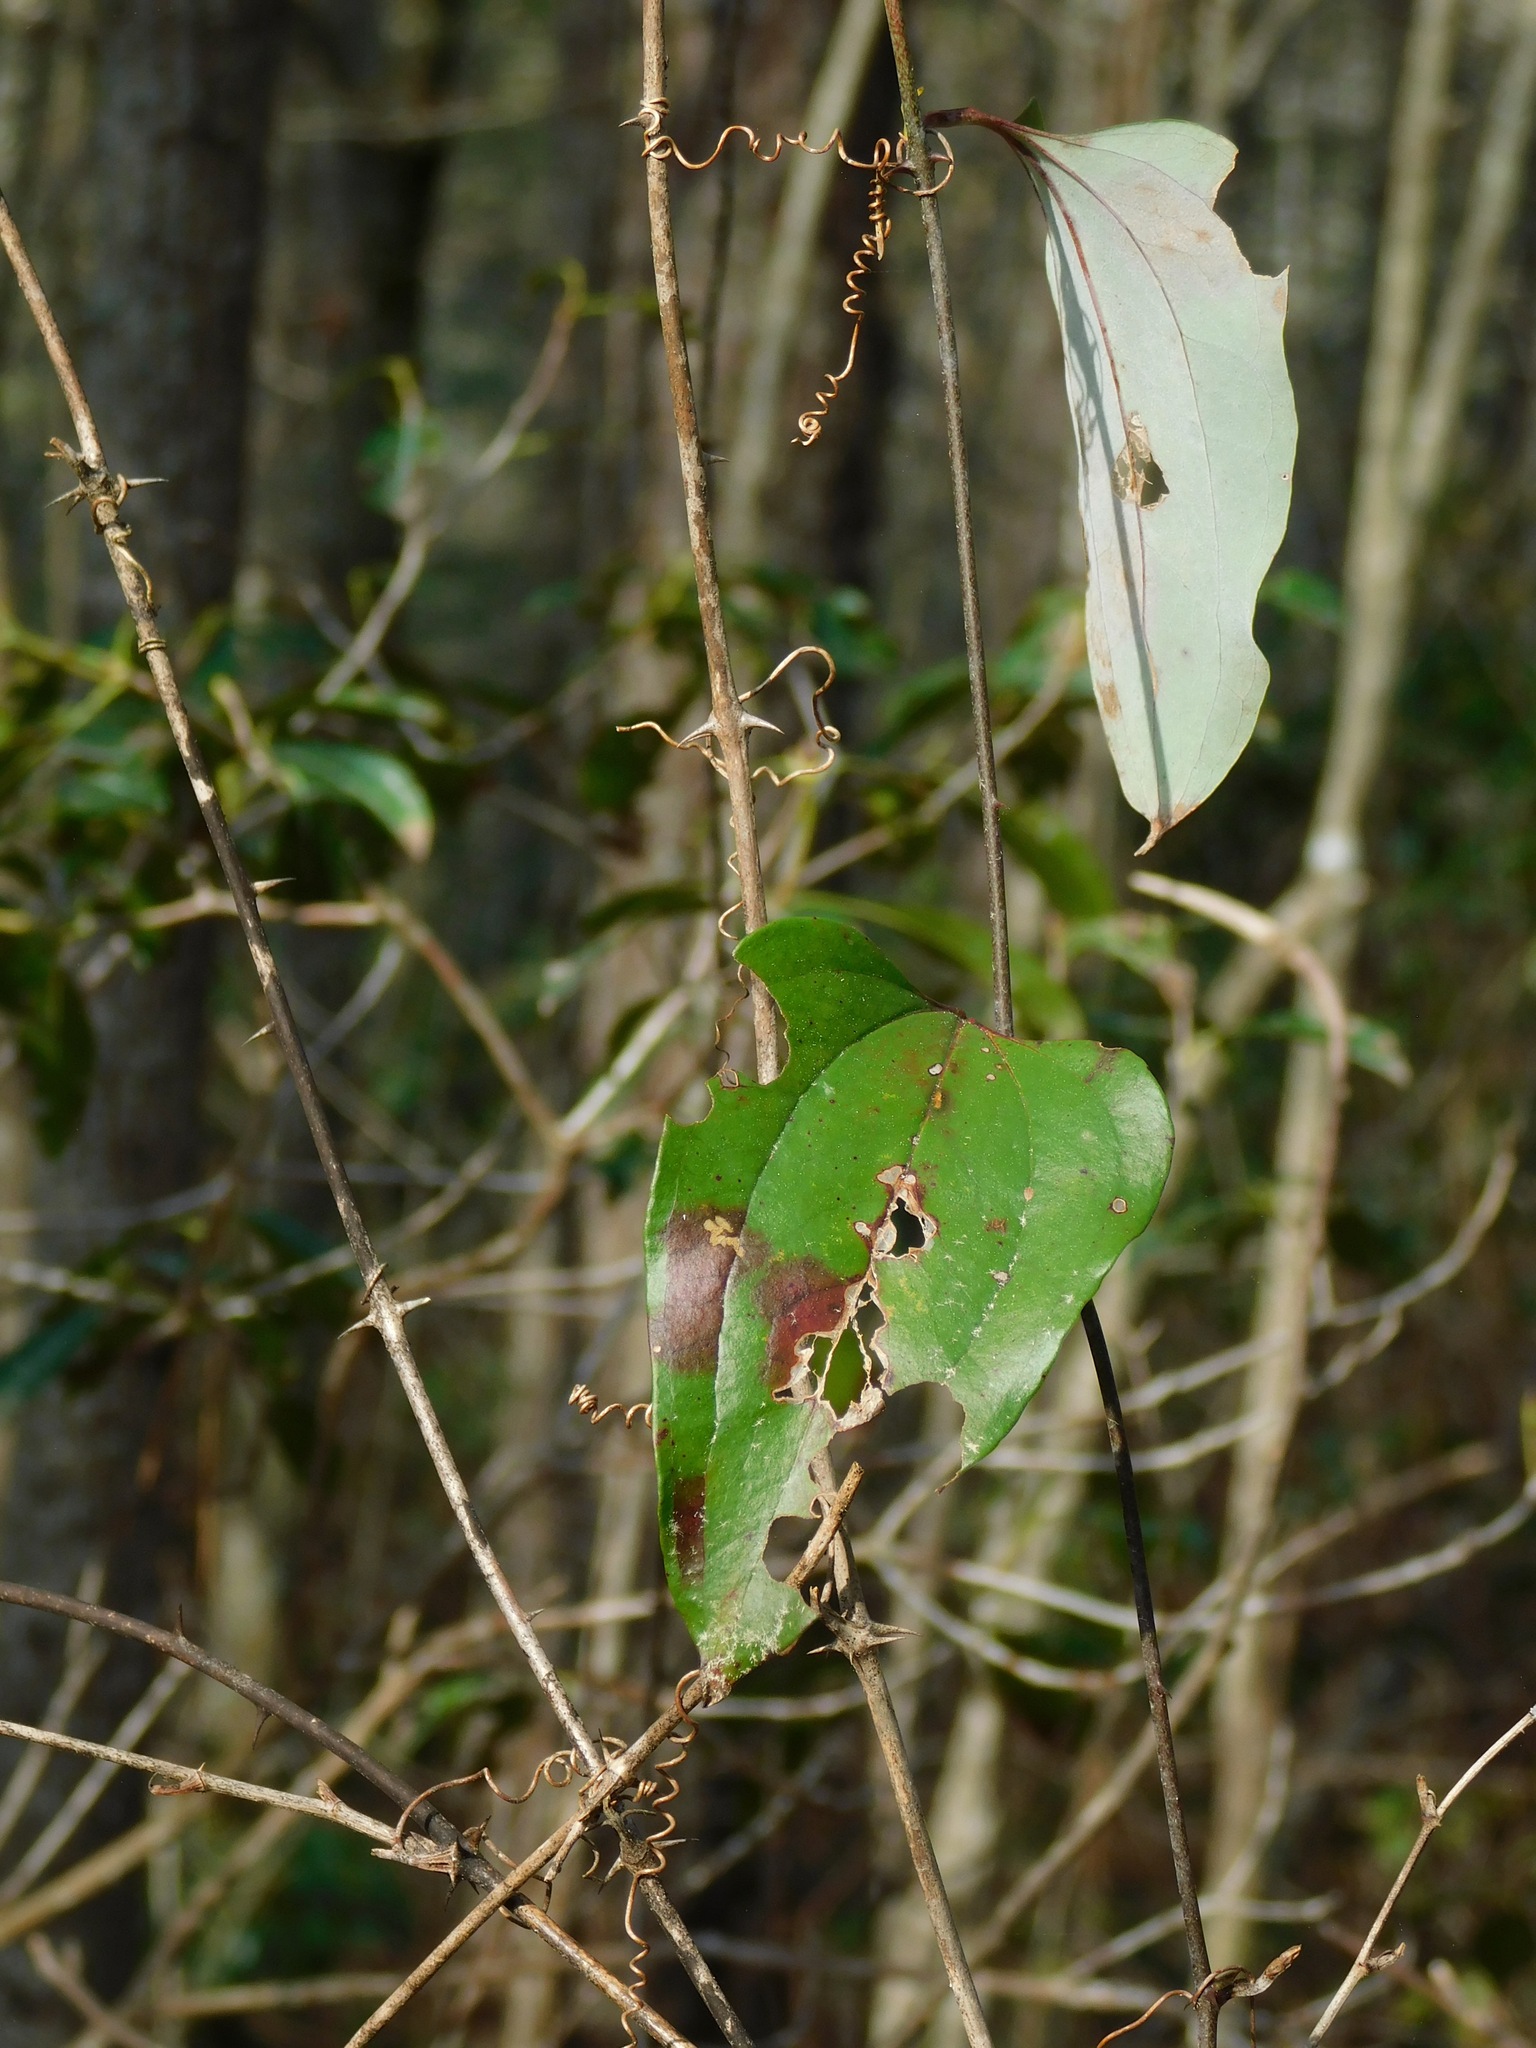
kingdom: Plantae
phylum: Tracheophyta
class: Liliopsida
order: Liliales
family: Smilacaceae
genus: Smilax
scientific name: Smilax glauca
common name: Cat greenbrier
